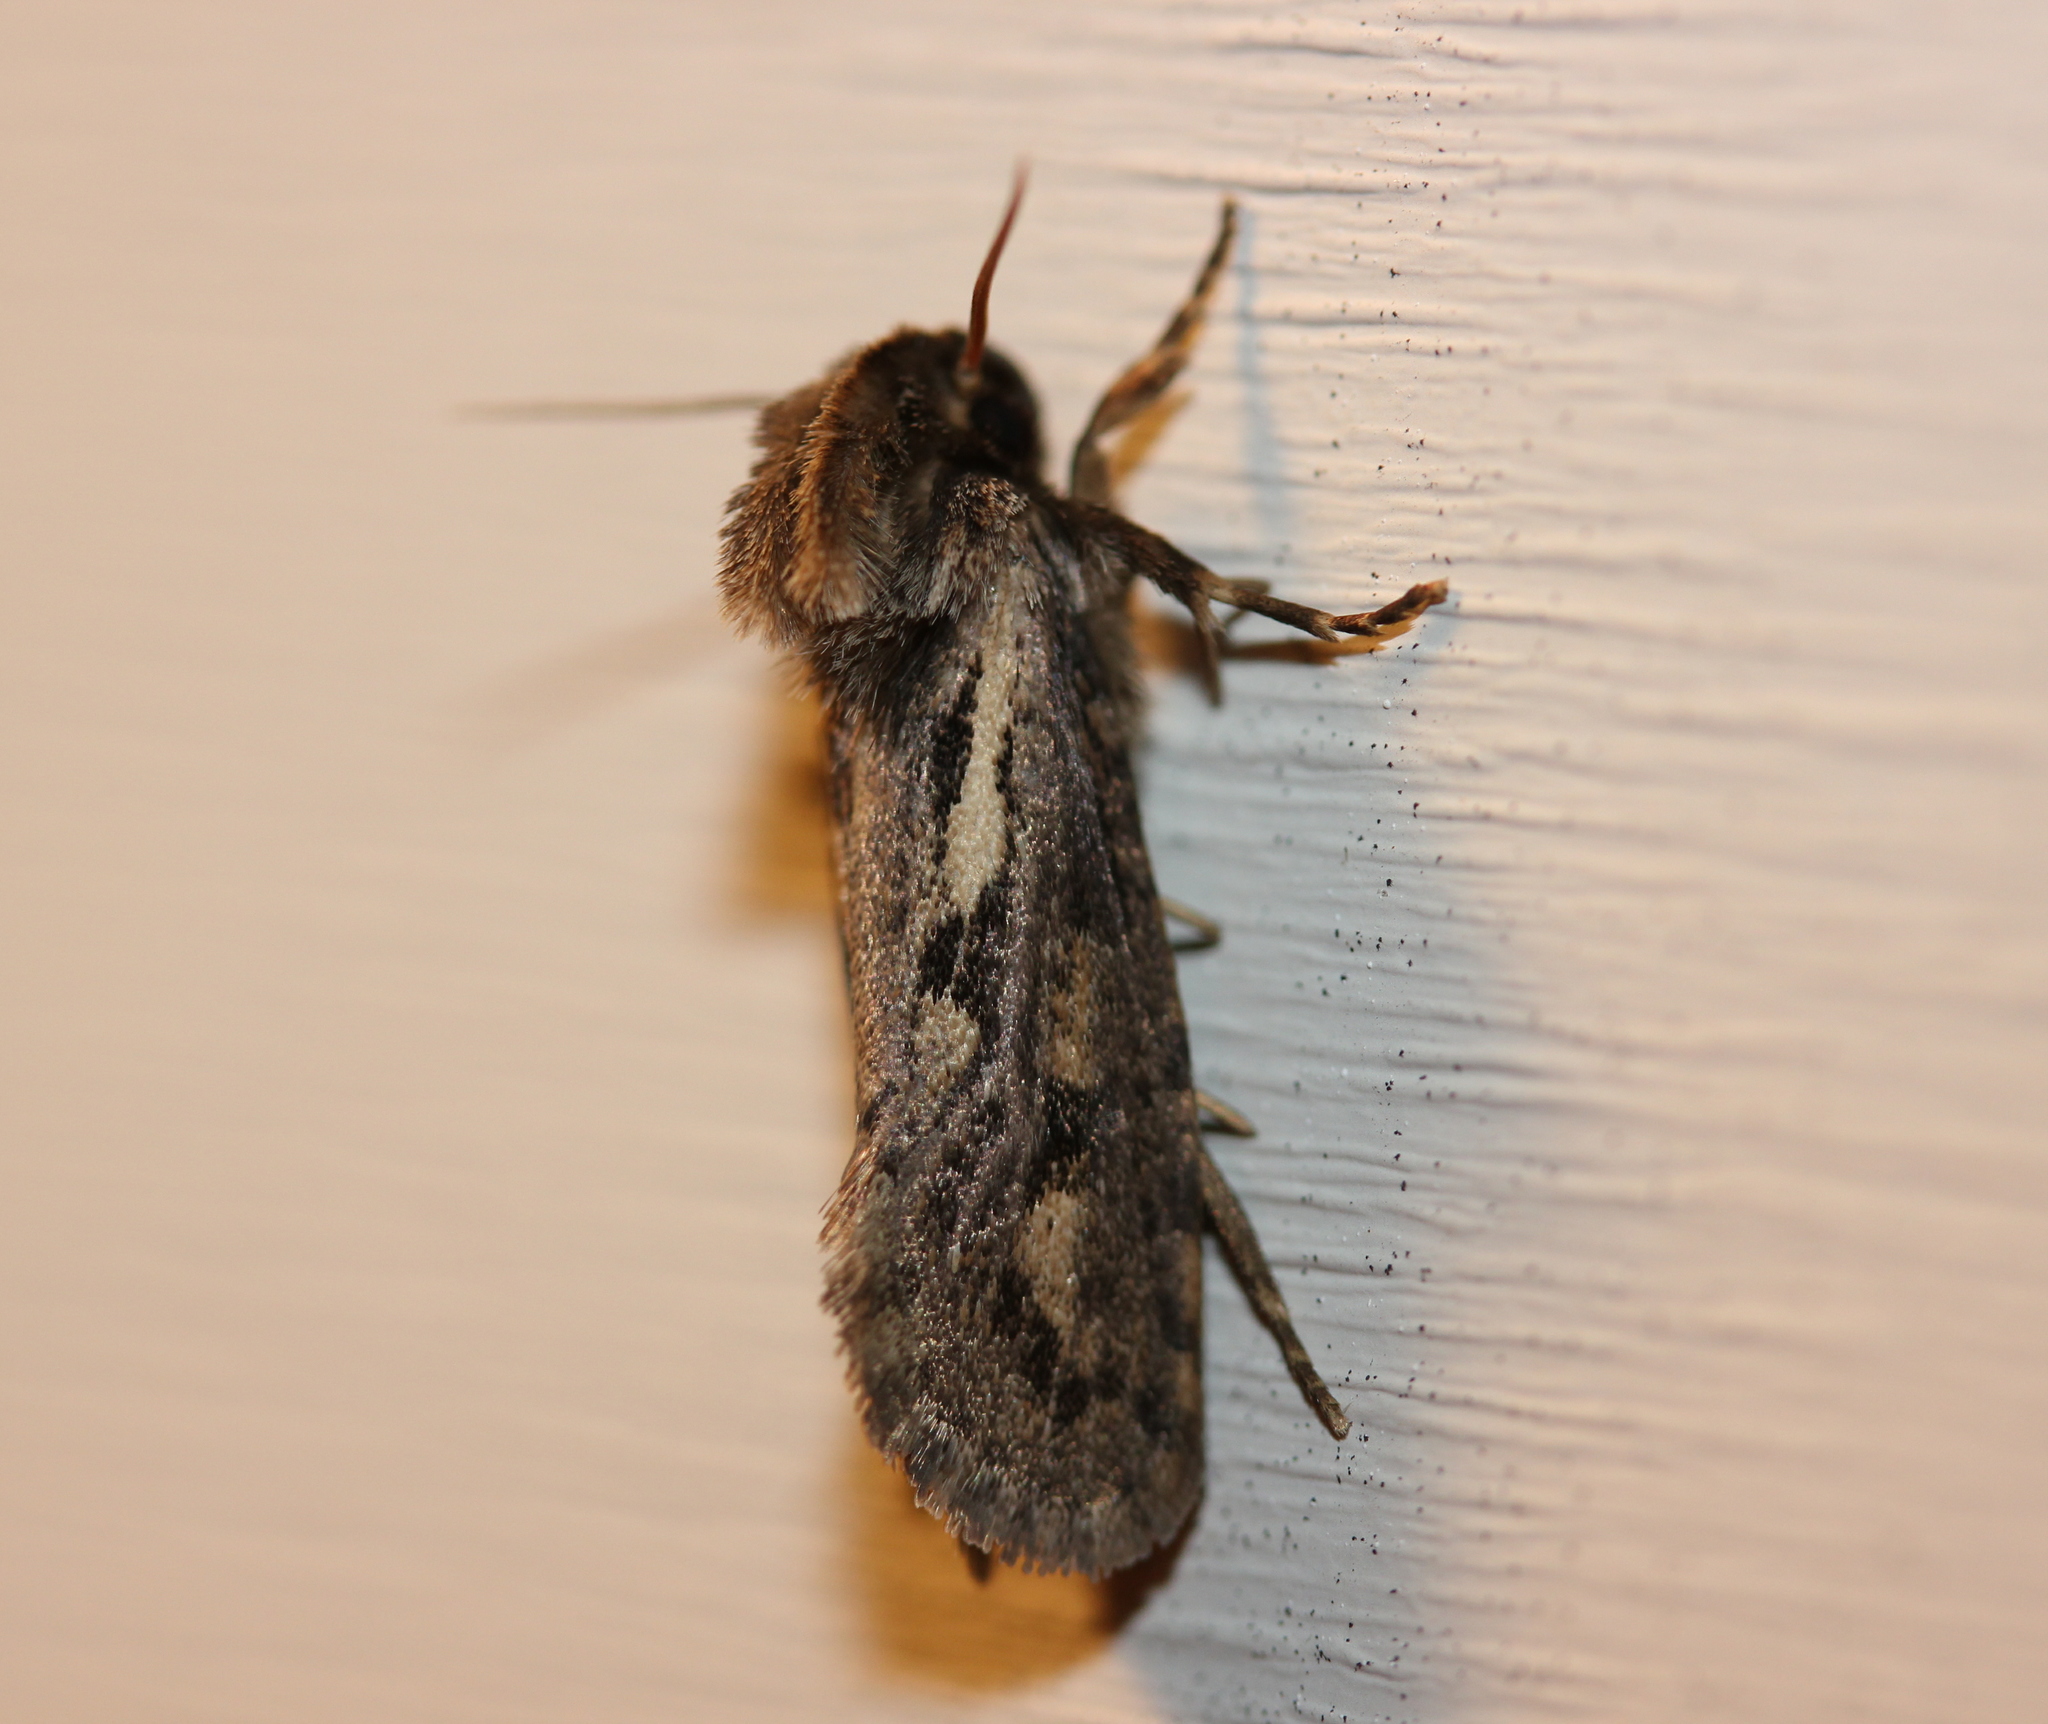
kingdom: Animalia
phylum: Arthropoda
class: Insecta
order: Lepidoptera
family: Tineidae
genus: Acrolophus
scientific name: Acrolophus popeanella
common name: Clemens' grass tubeworm moth
